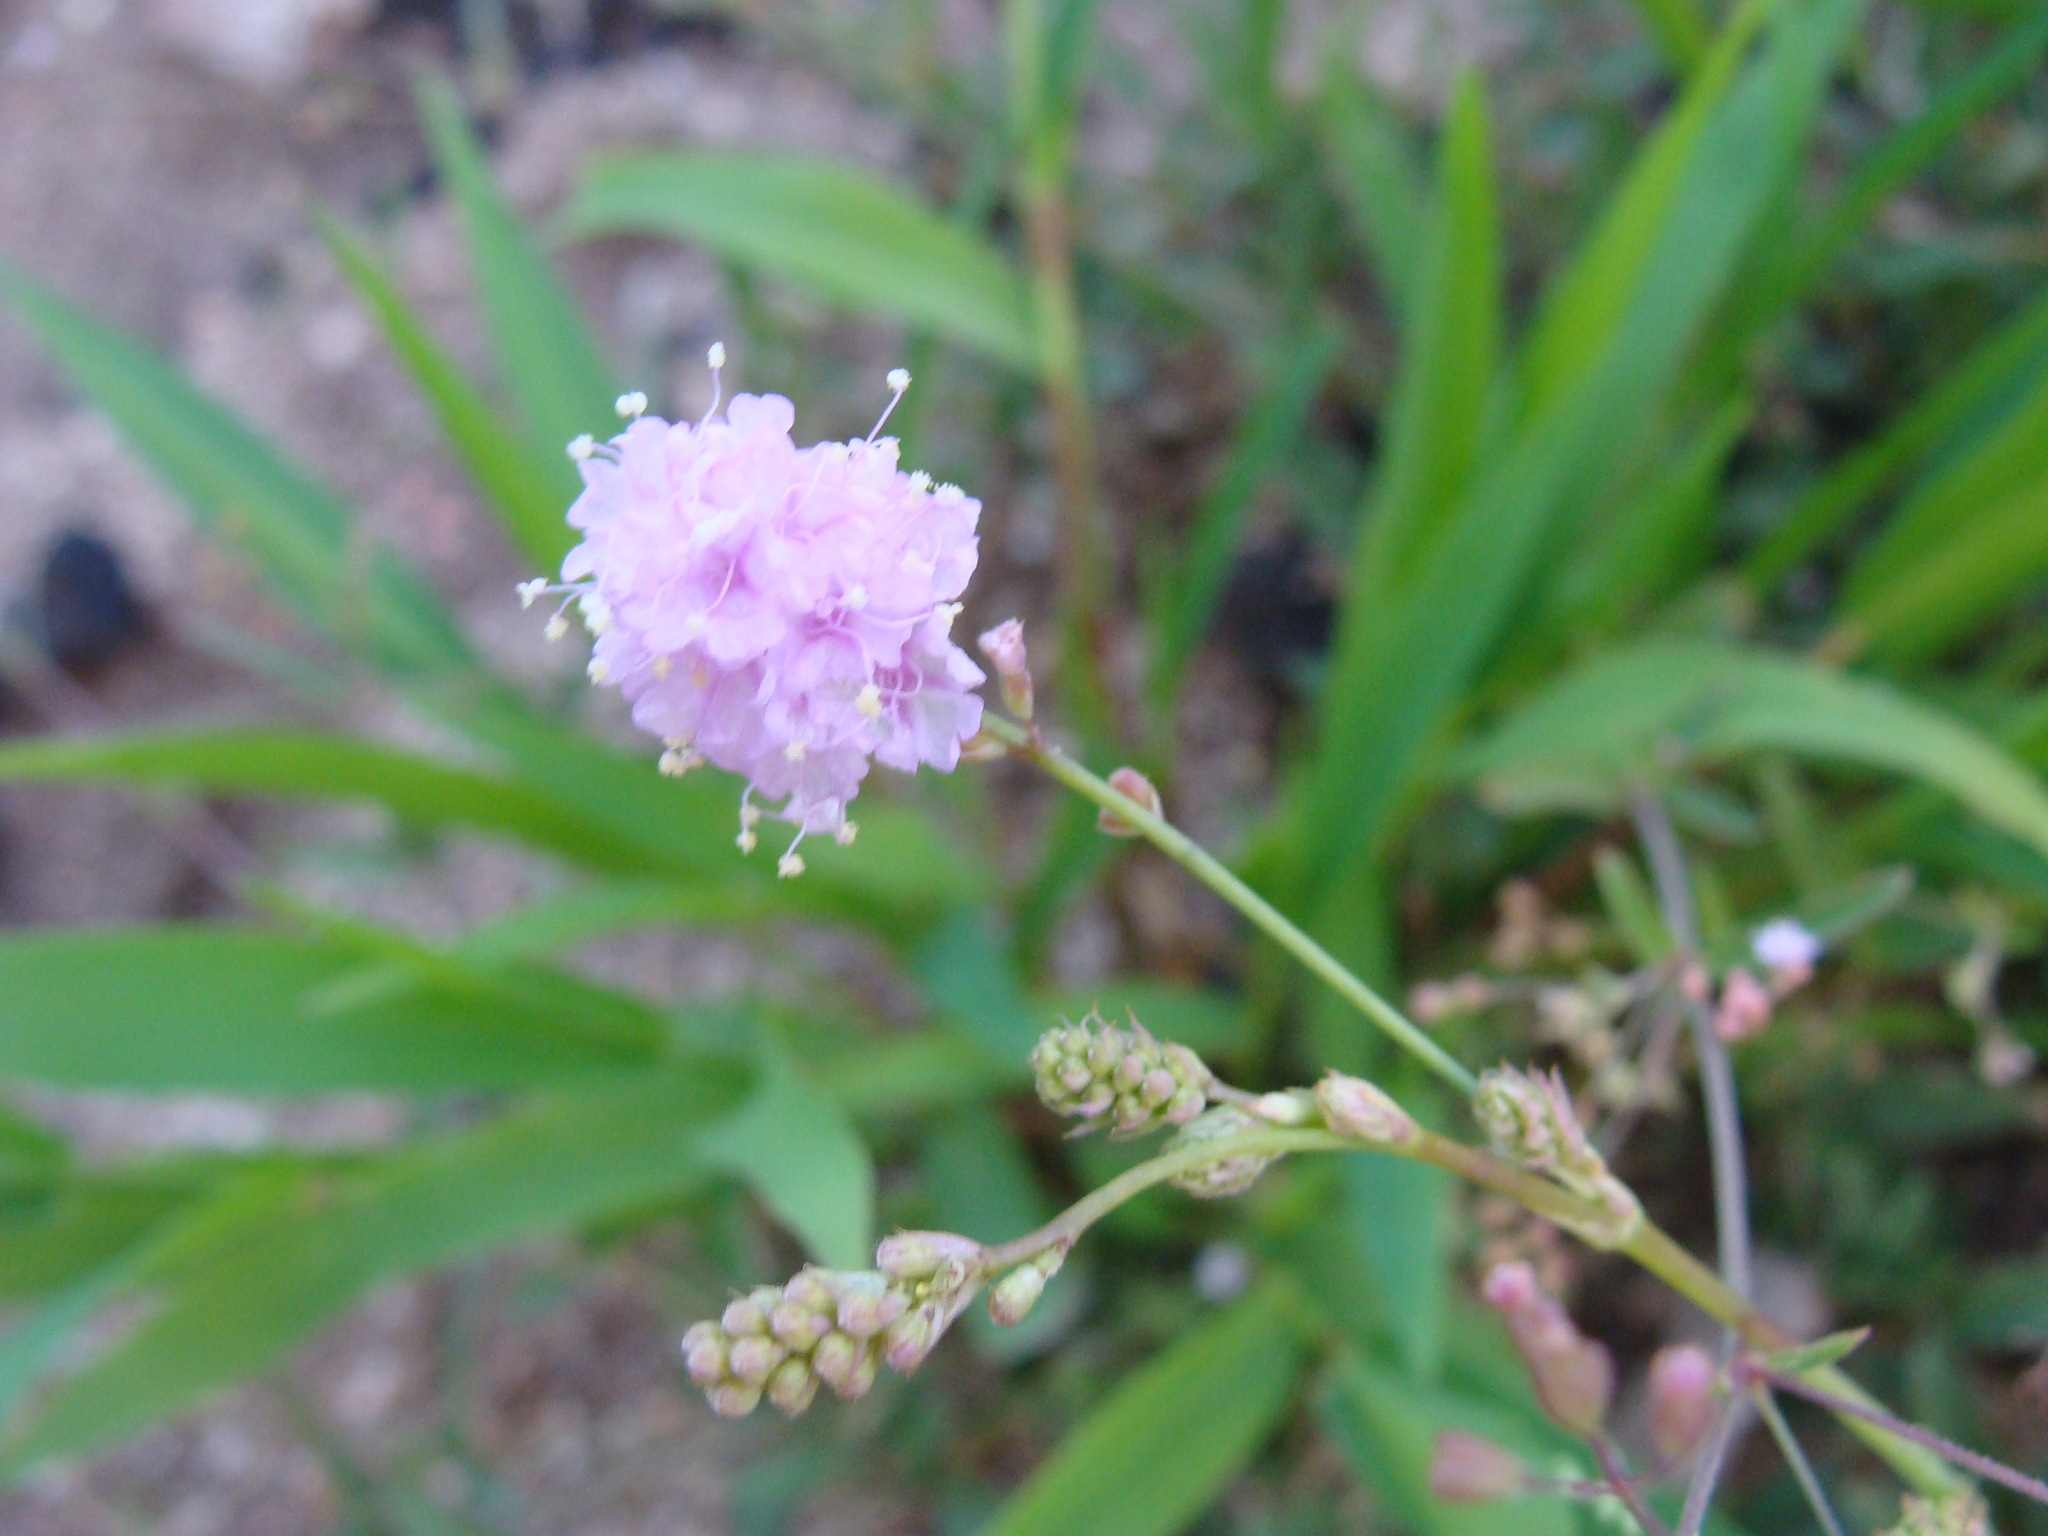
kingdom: Plantae
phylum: Tracheophyta
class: Magnoliopsida
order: Caryophyllales
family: Nyctaginaceae
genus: Boerhavia
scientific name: Boerhavia xantii
